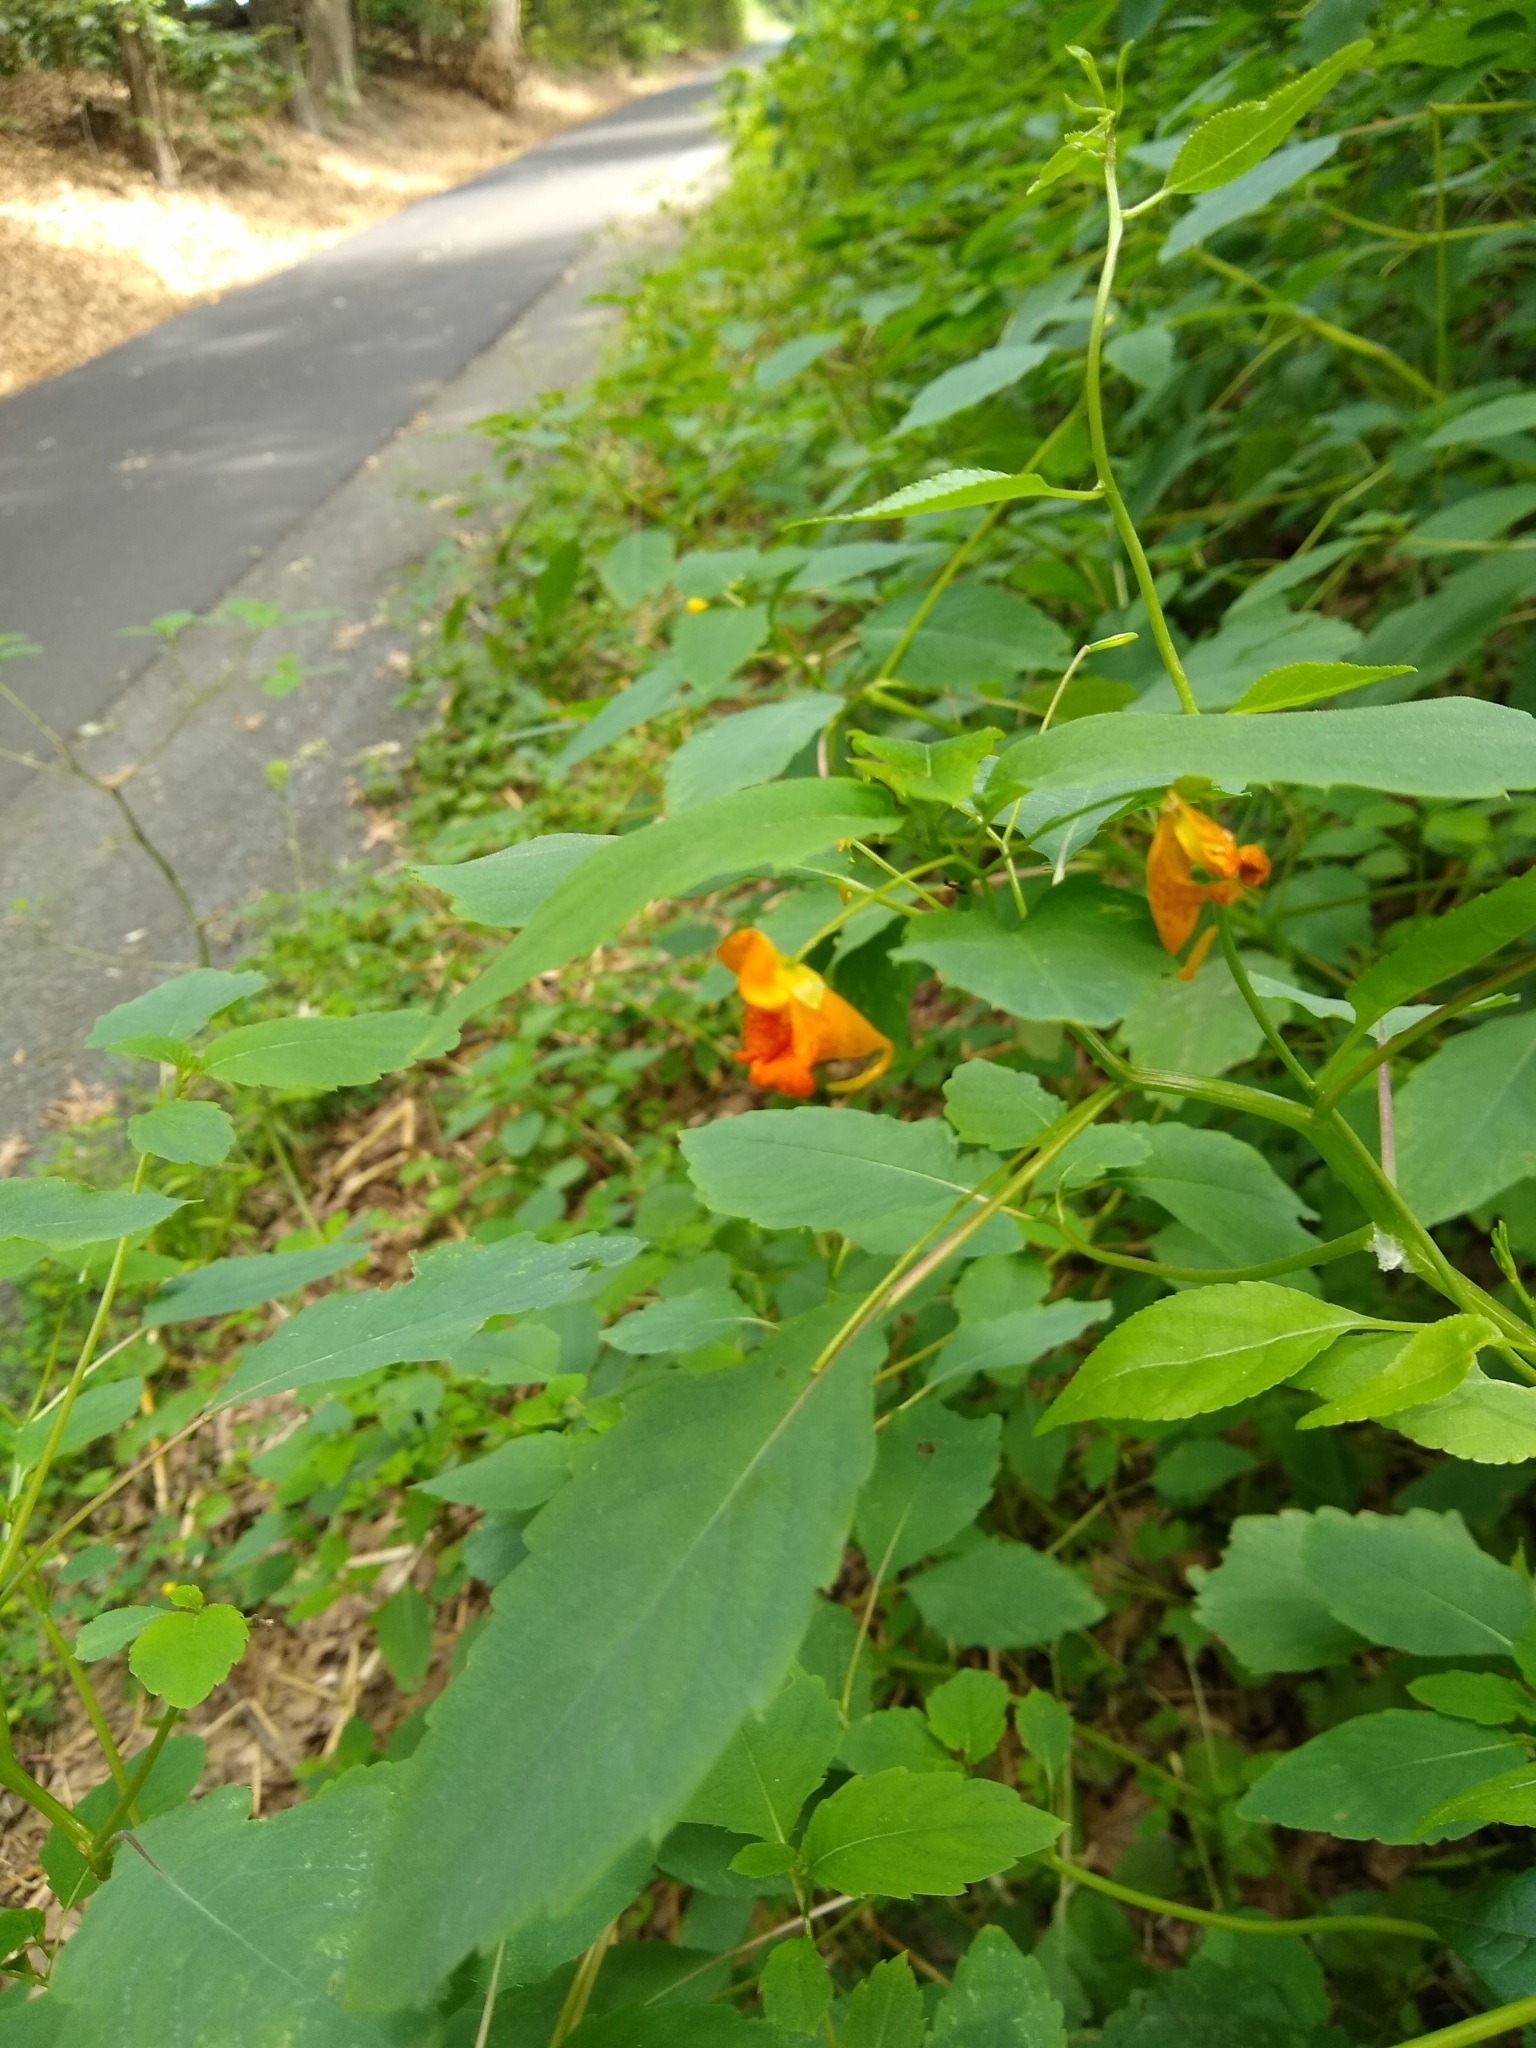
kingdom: Plantae
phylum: Tracheophyta
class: Magnoliopsida
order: Ericales
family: Balsaminaceae
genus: Impatiens
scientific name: Impatiens capensis
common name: Orange balsam
